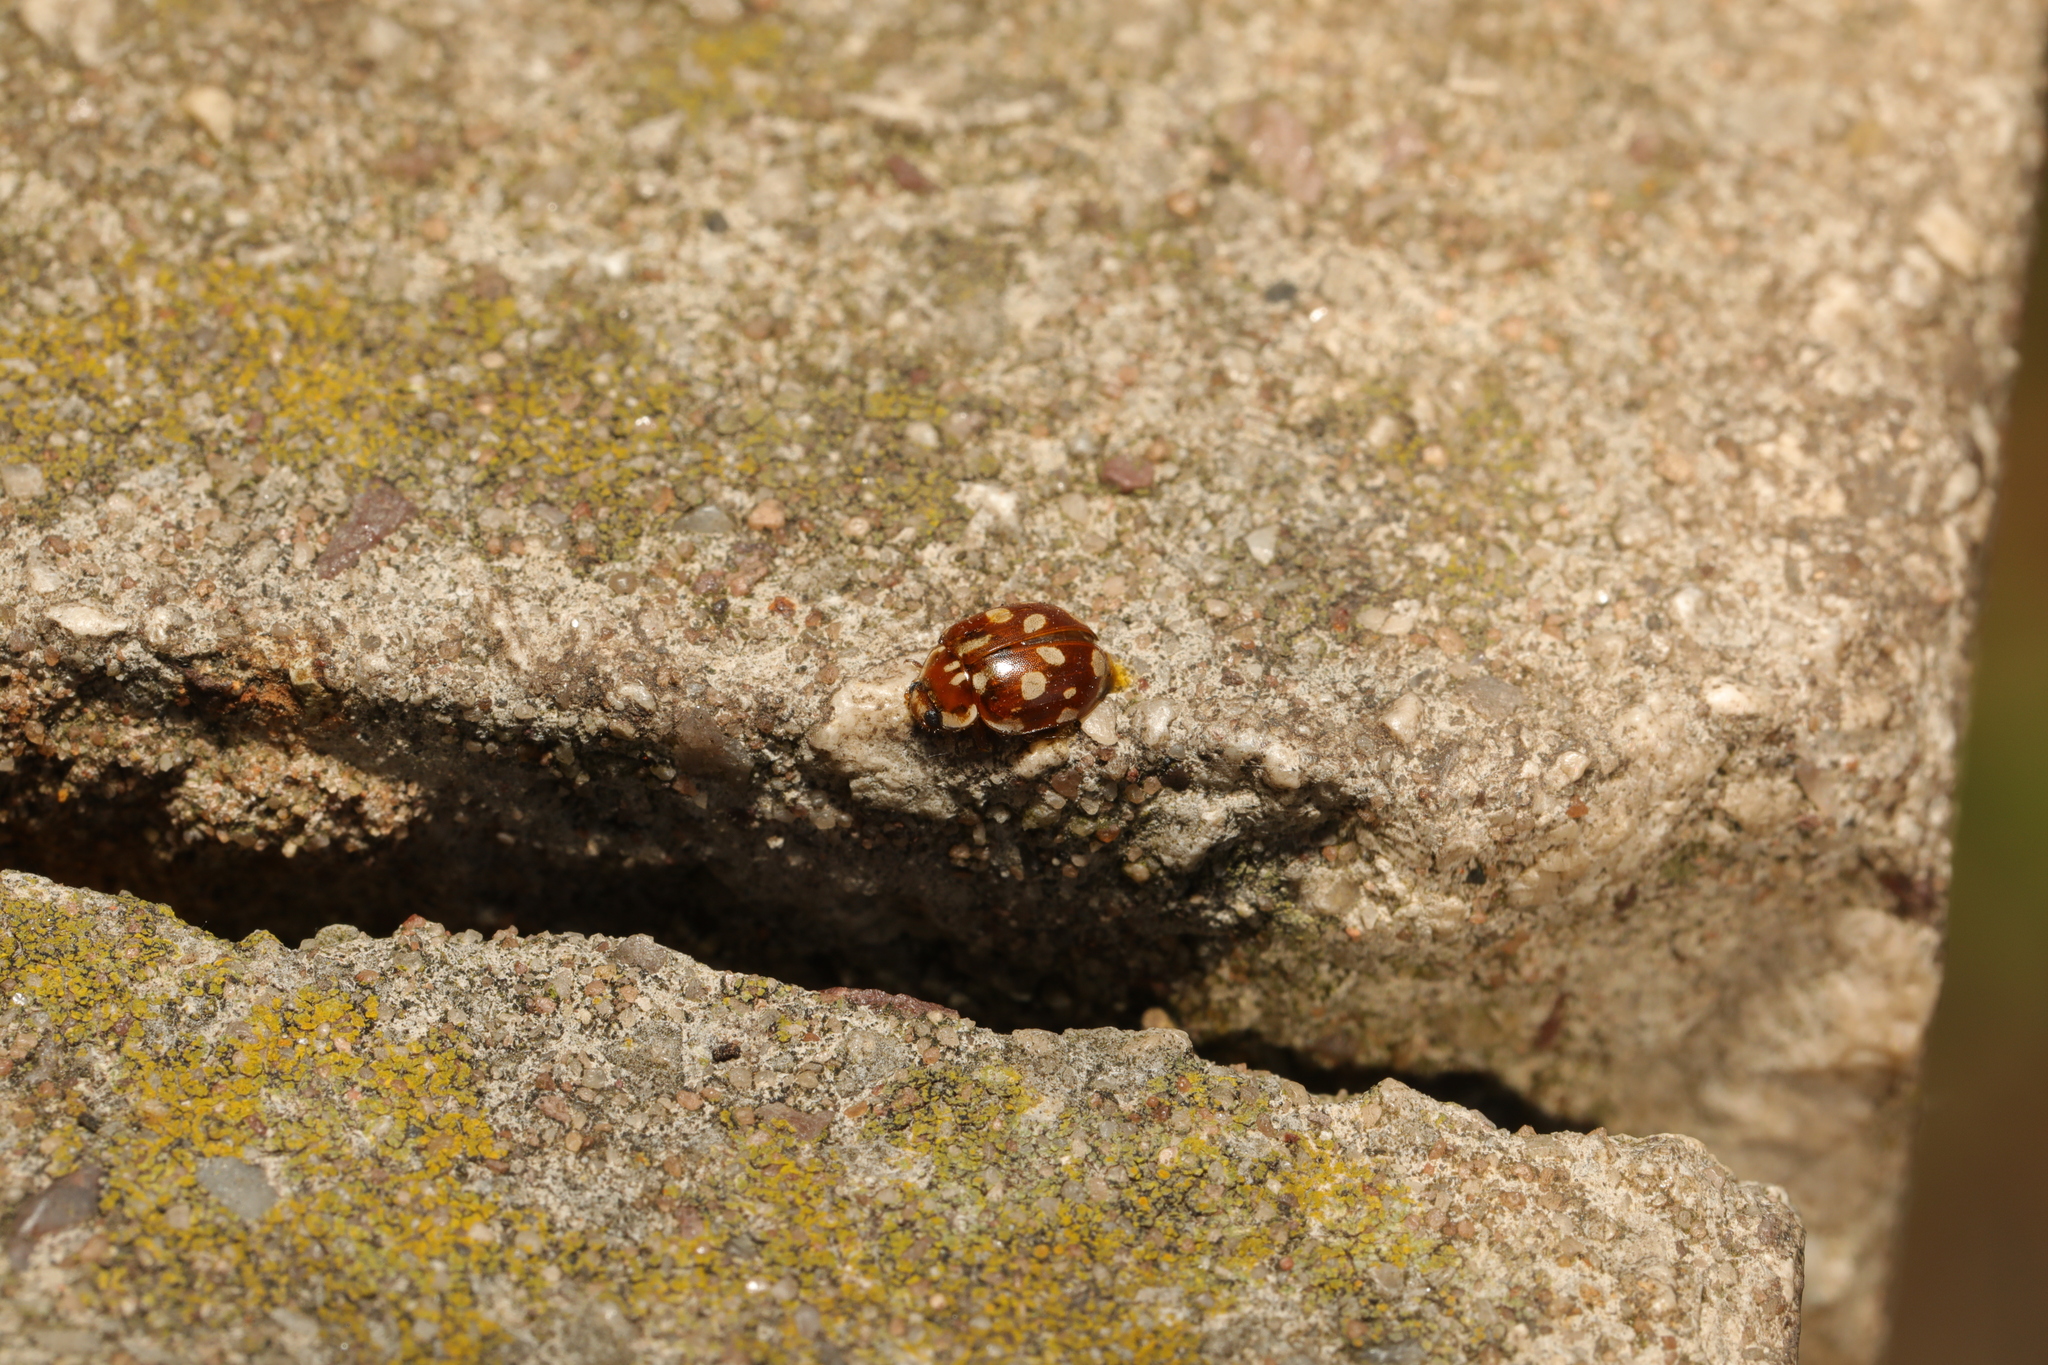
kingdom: Animalia
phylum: Arthropoda
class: Insecta
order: Coleoptera
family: Coccinellidae
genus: Myrrha
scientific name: Myrrha octodecimguttata
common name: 18-spot ladybird
